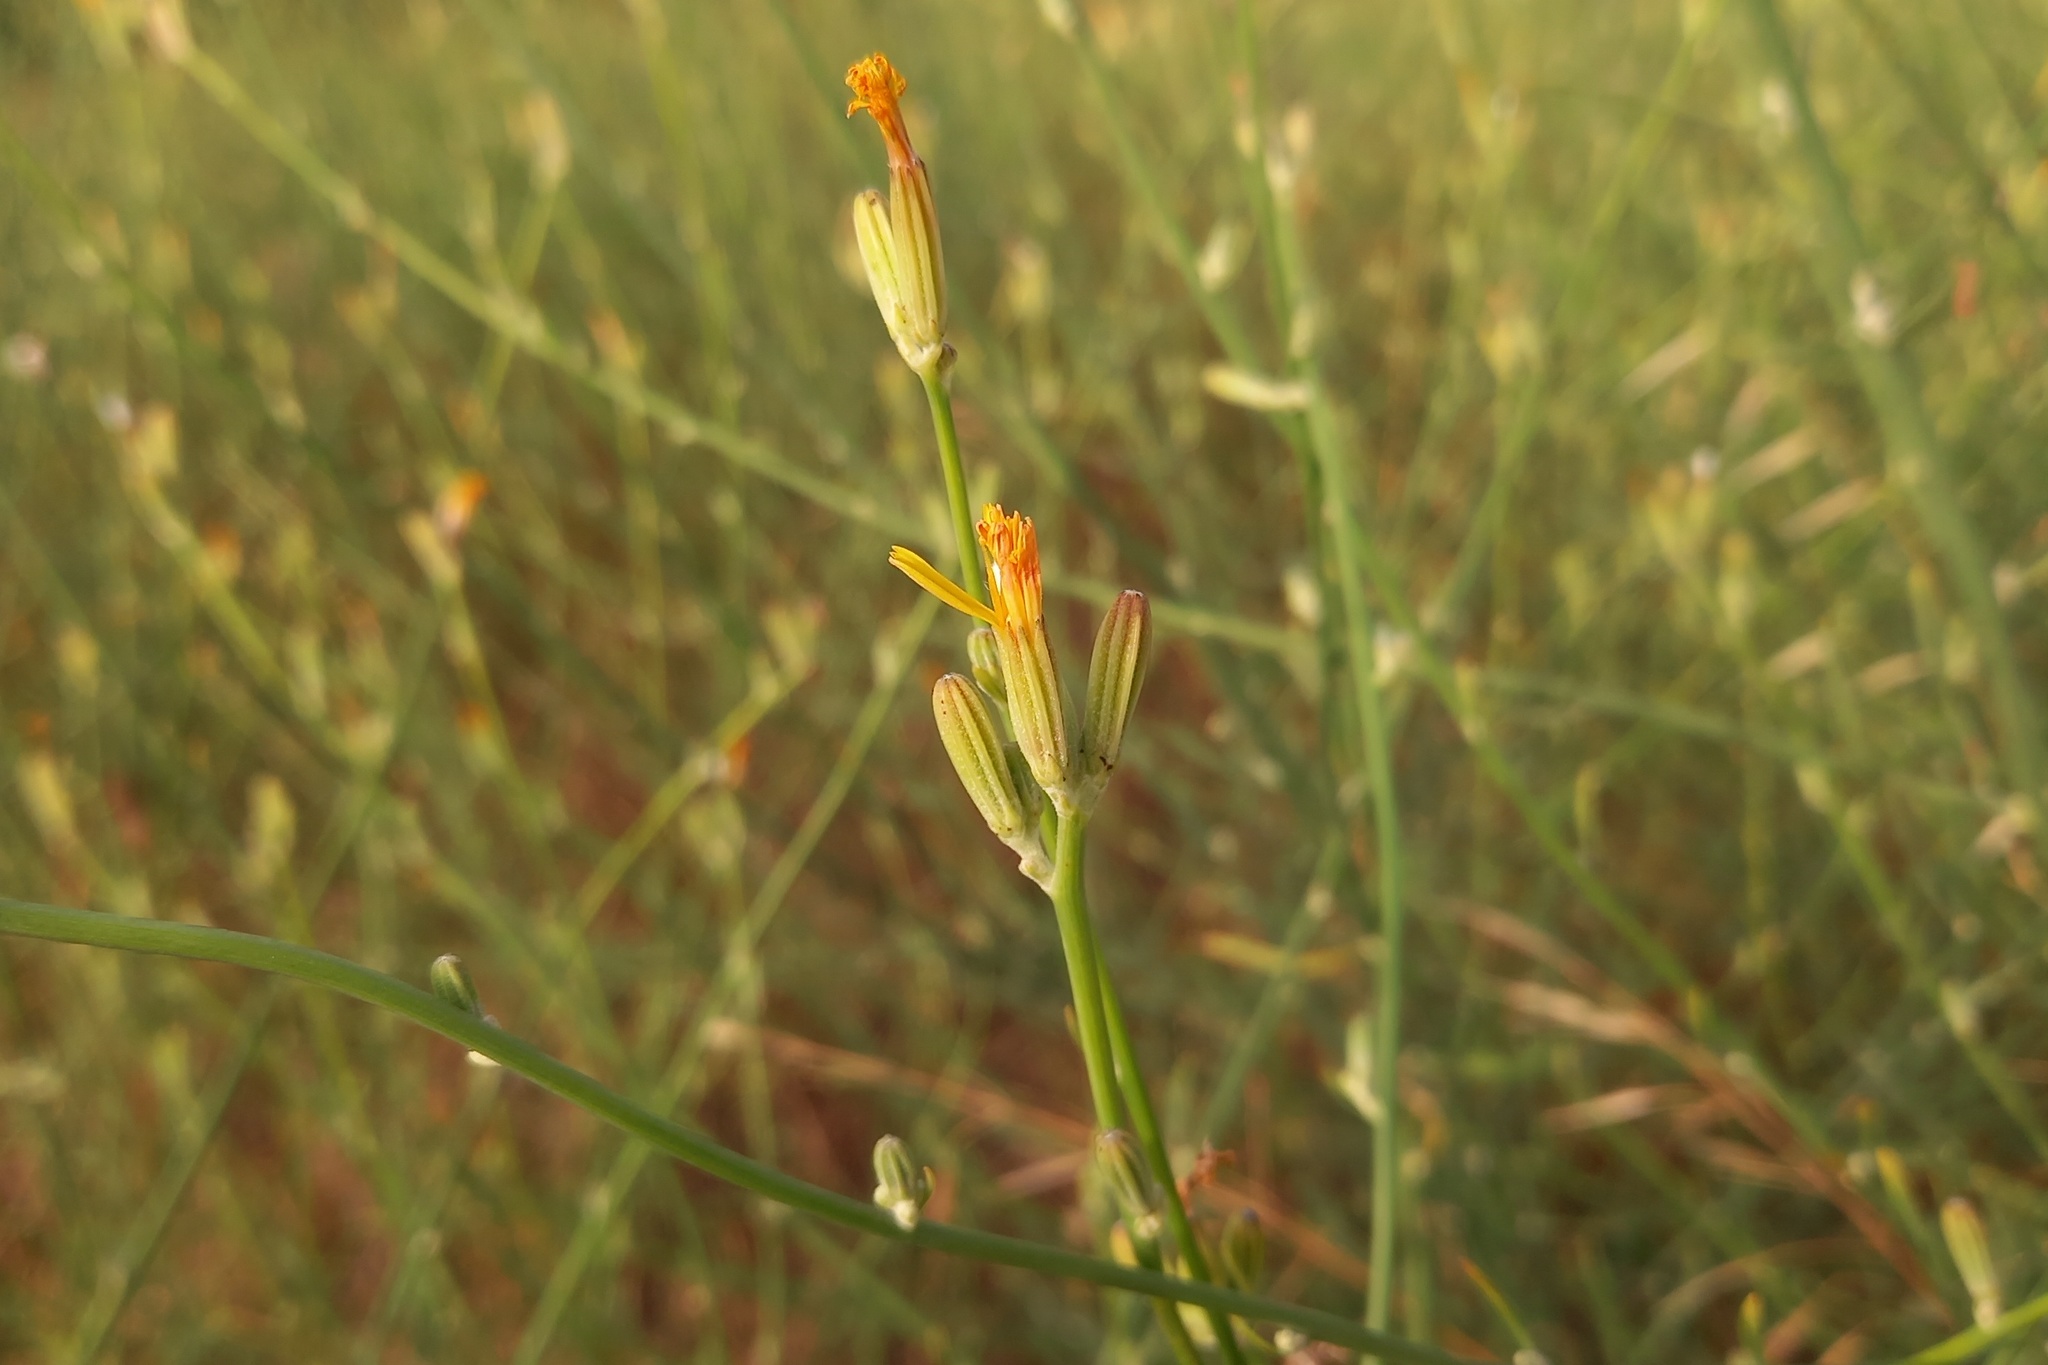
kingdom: Plantae
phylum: Tracheophyta
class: Magnoliopsida
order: Asterales
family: Asteraceae
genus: Chondrilla
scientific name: Chondrilla juncea
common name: Skeleton weed
